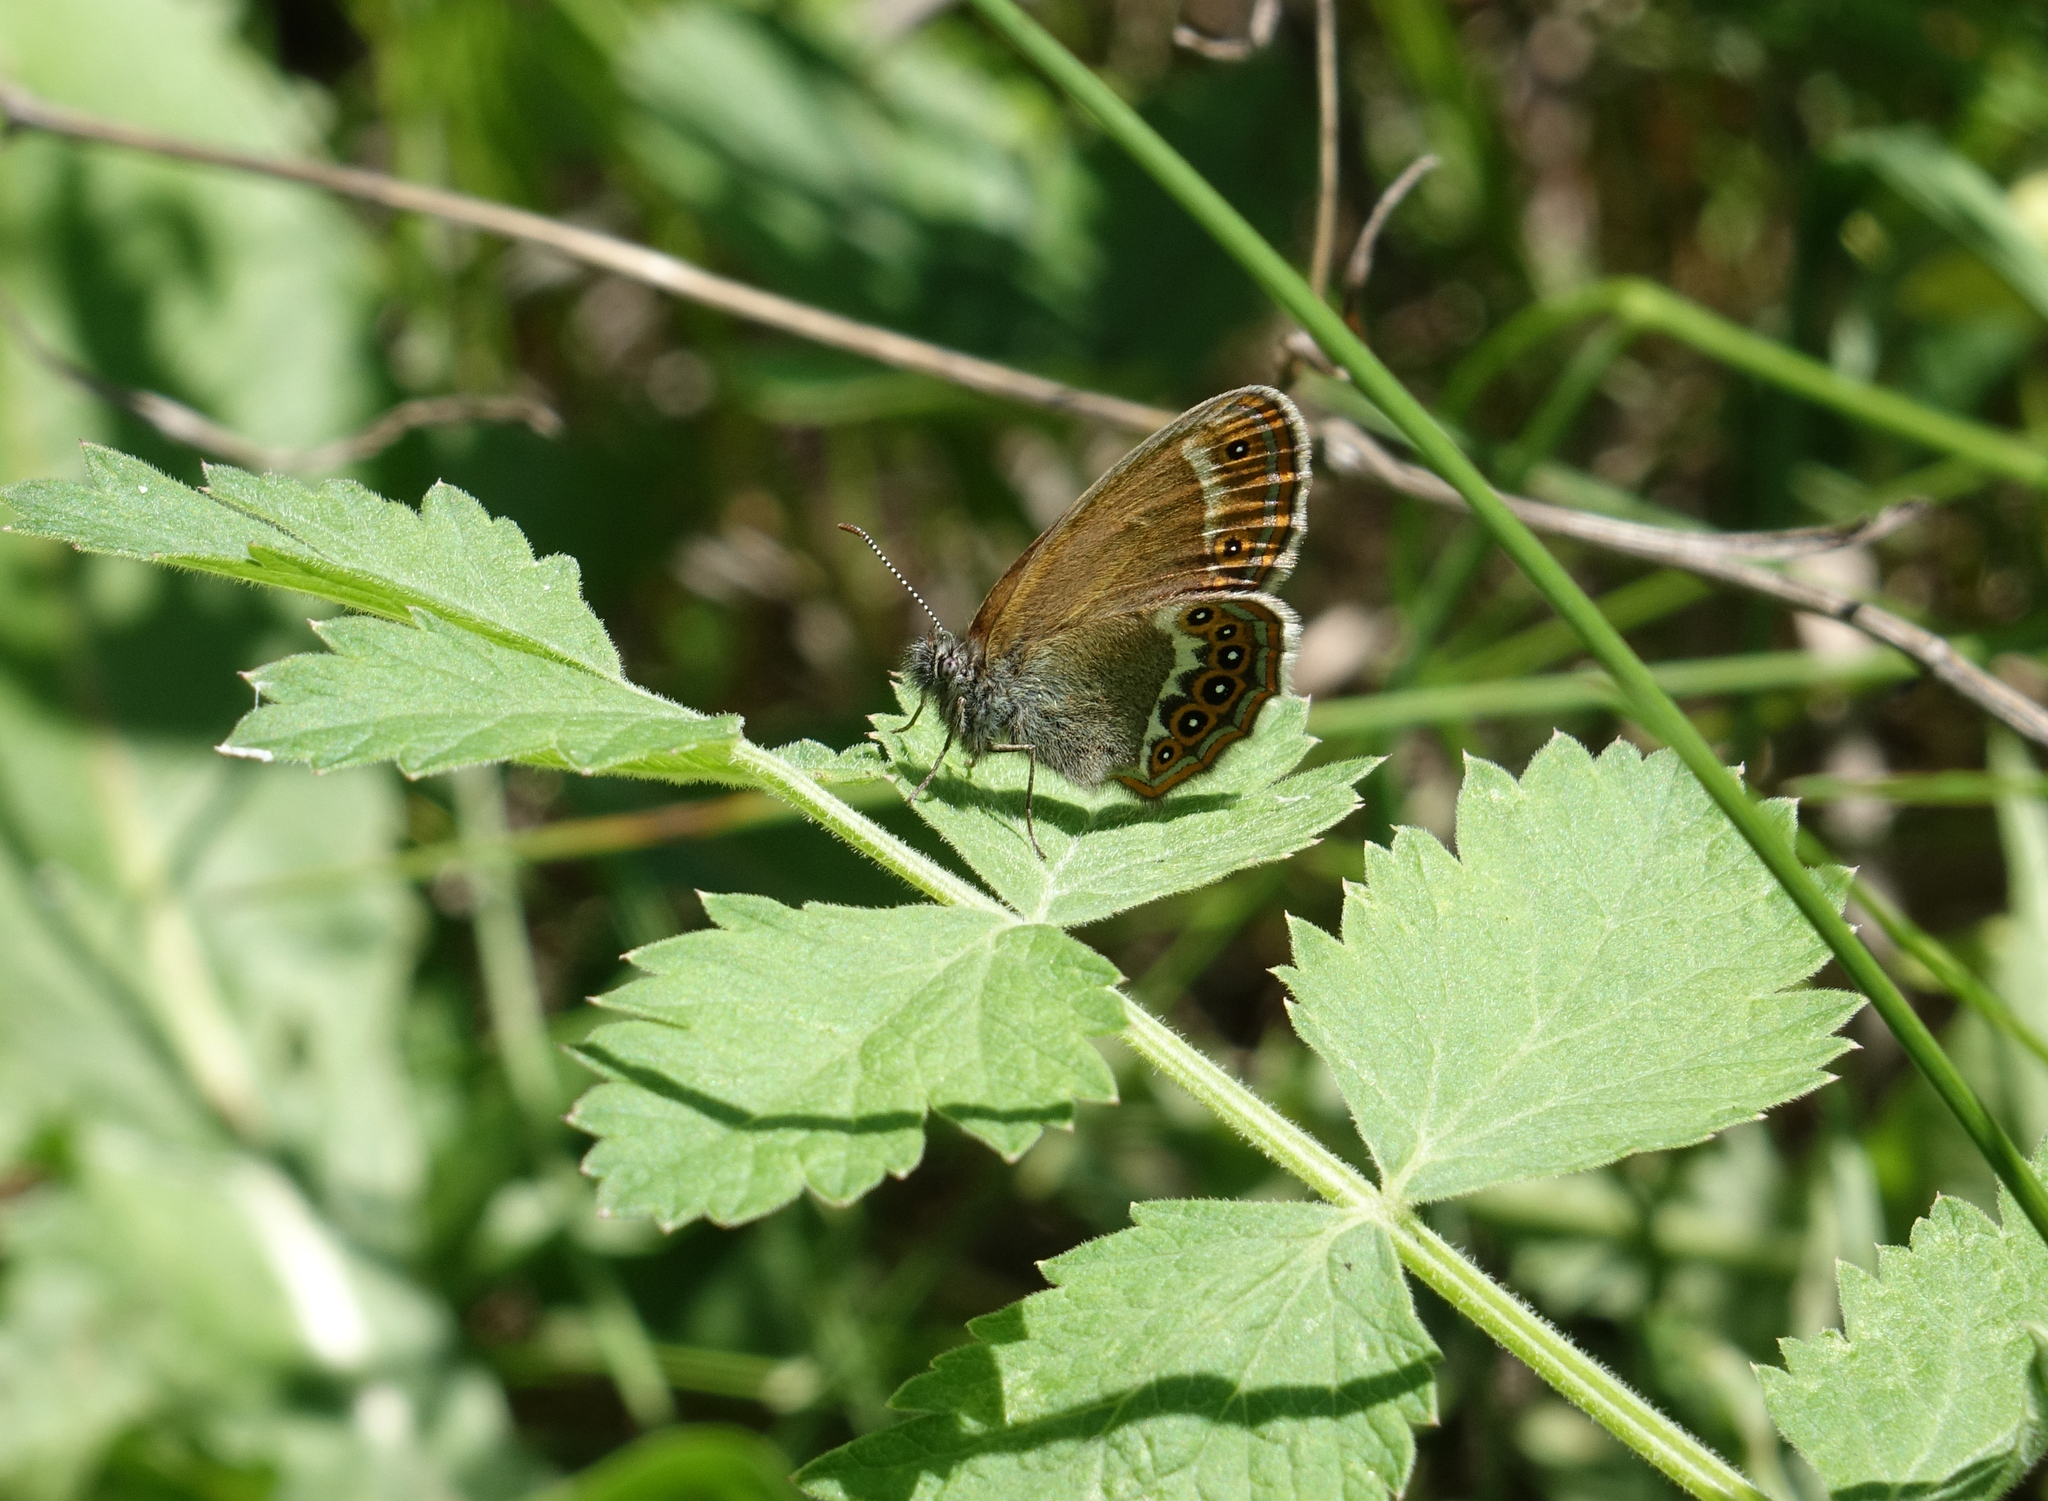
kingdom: Plantae
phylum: Tracheophyta
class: Magnoliopsida
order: Apiales
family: Apiaceae
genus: Pimpinella
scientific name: Pimpinella saxifraga
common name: Burnet-saxifrage
